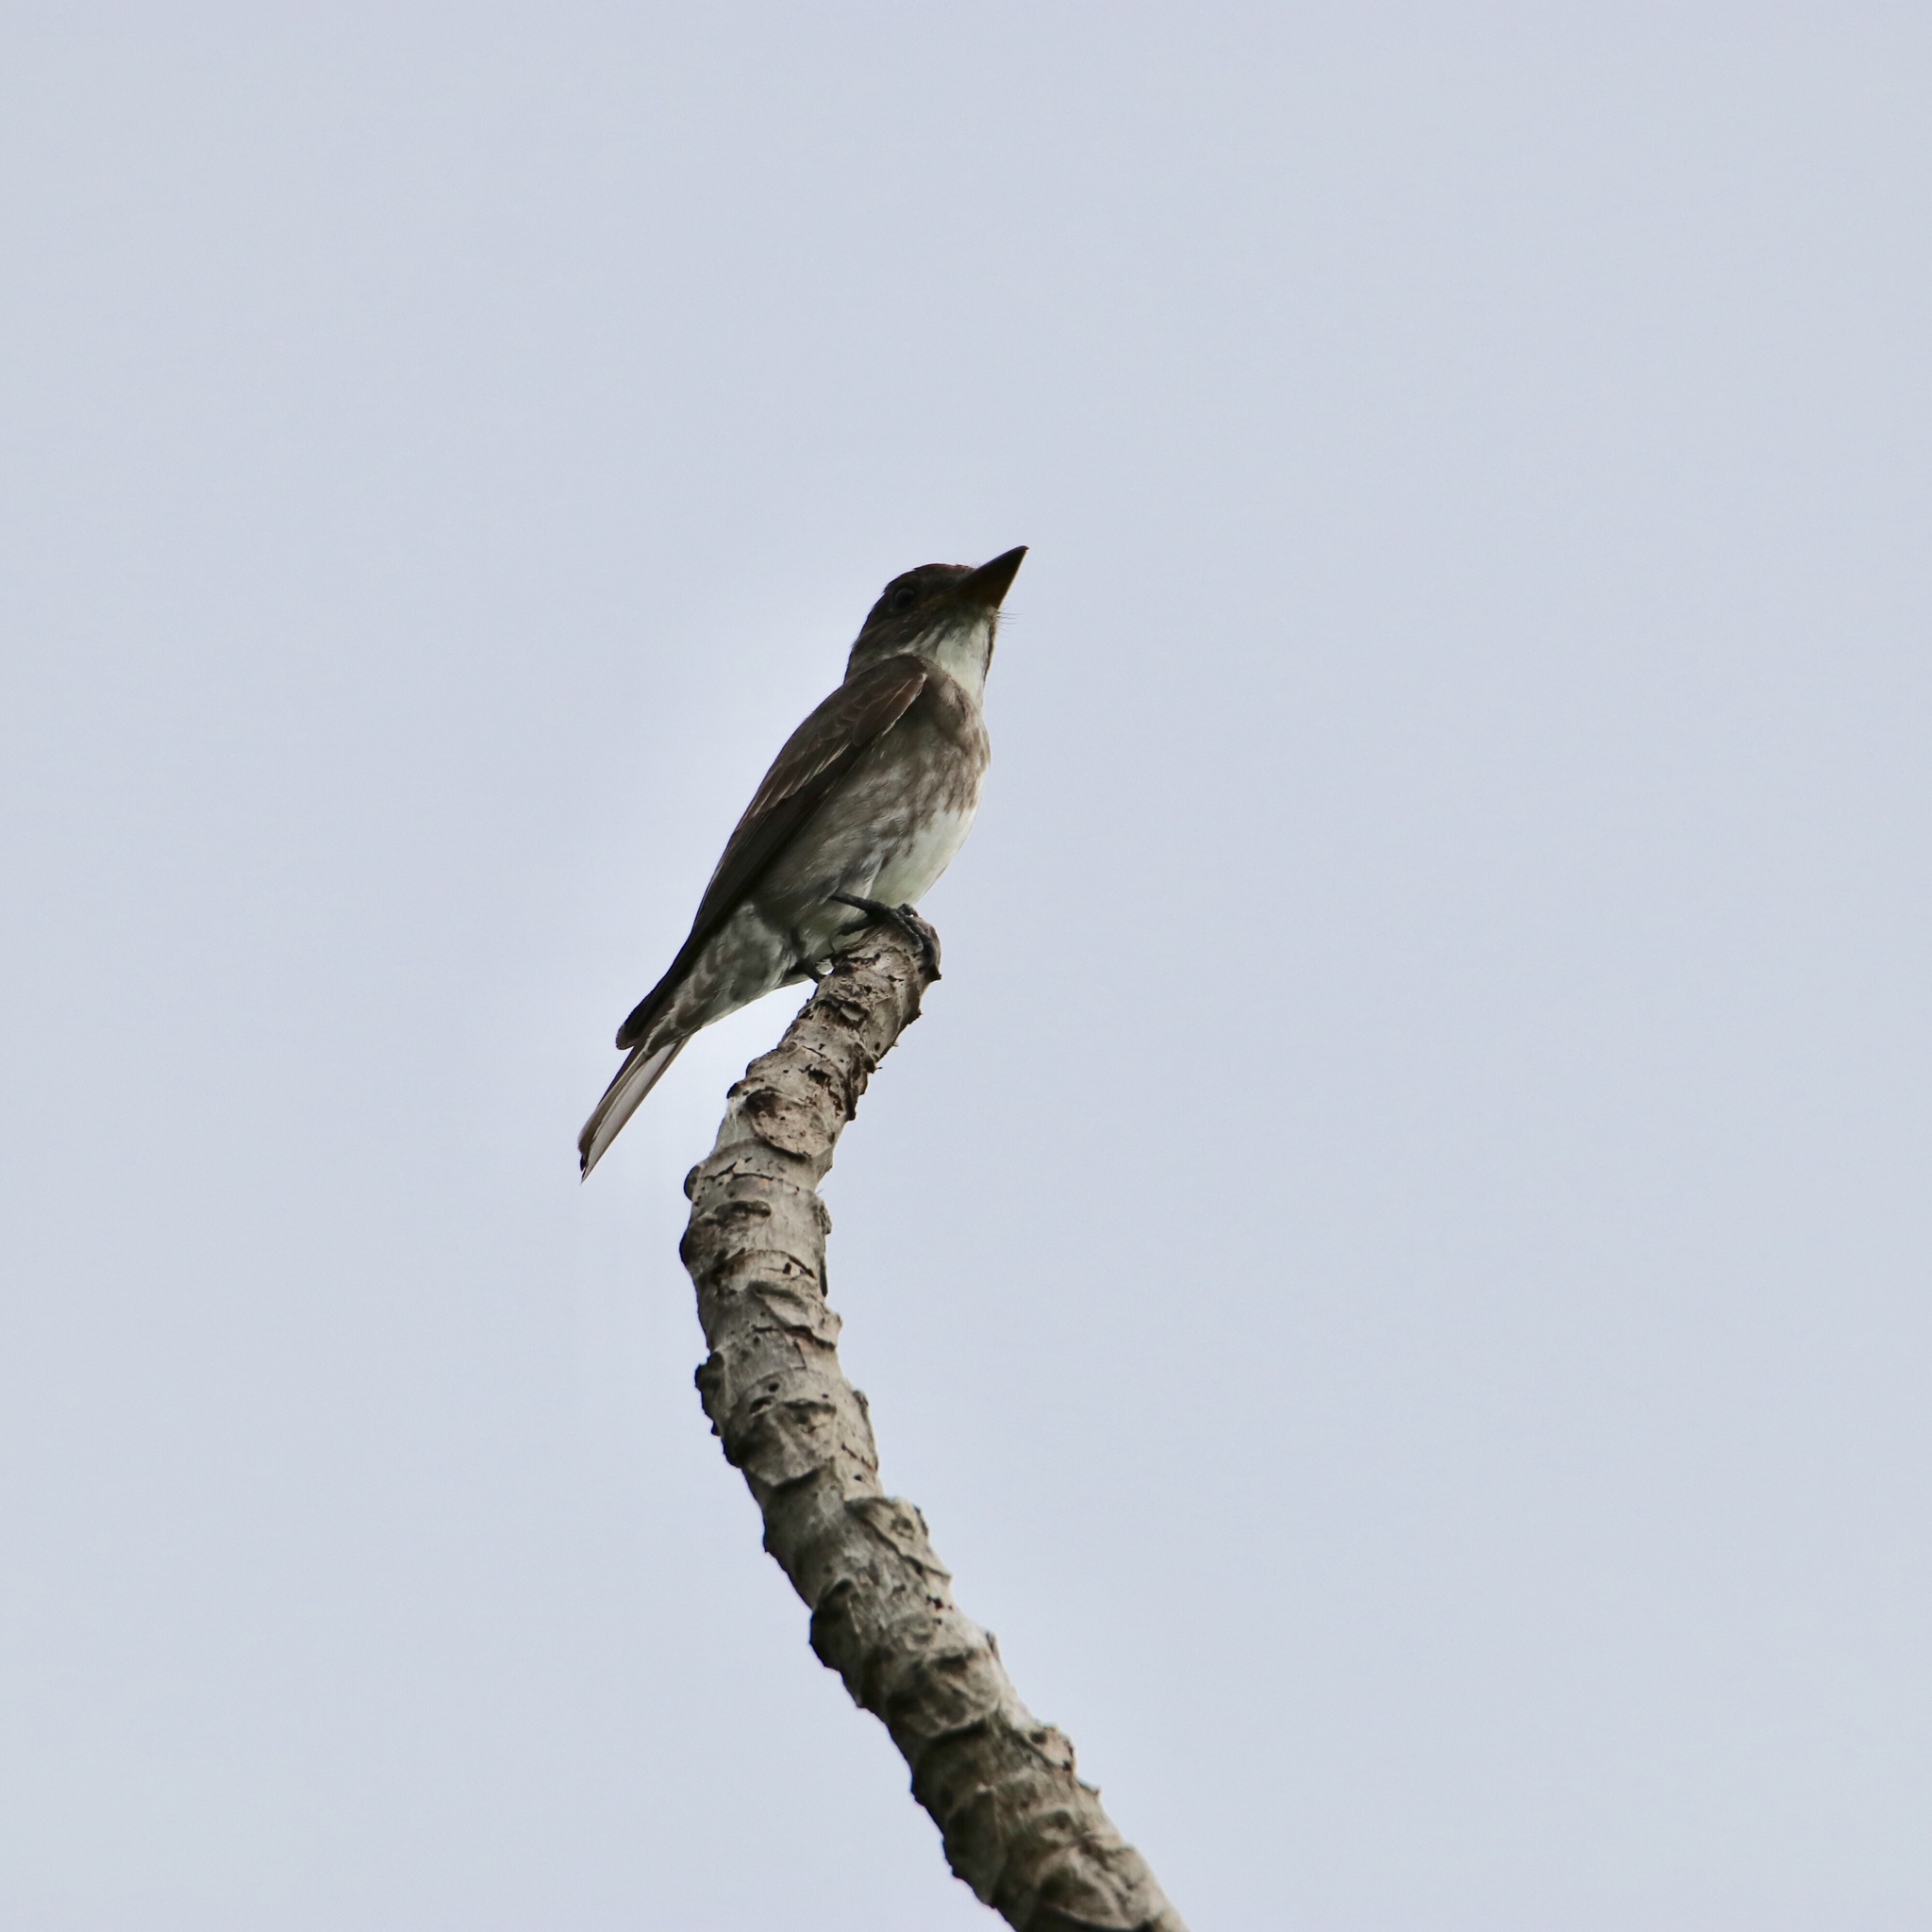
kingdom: Animalia
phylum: Chordata
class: Aves
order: Passeriformes
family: Tyrannidae
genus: Contopus
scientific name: Contopus cooperi
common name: Olive-sided flycatcher
